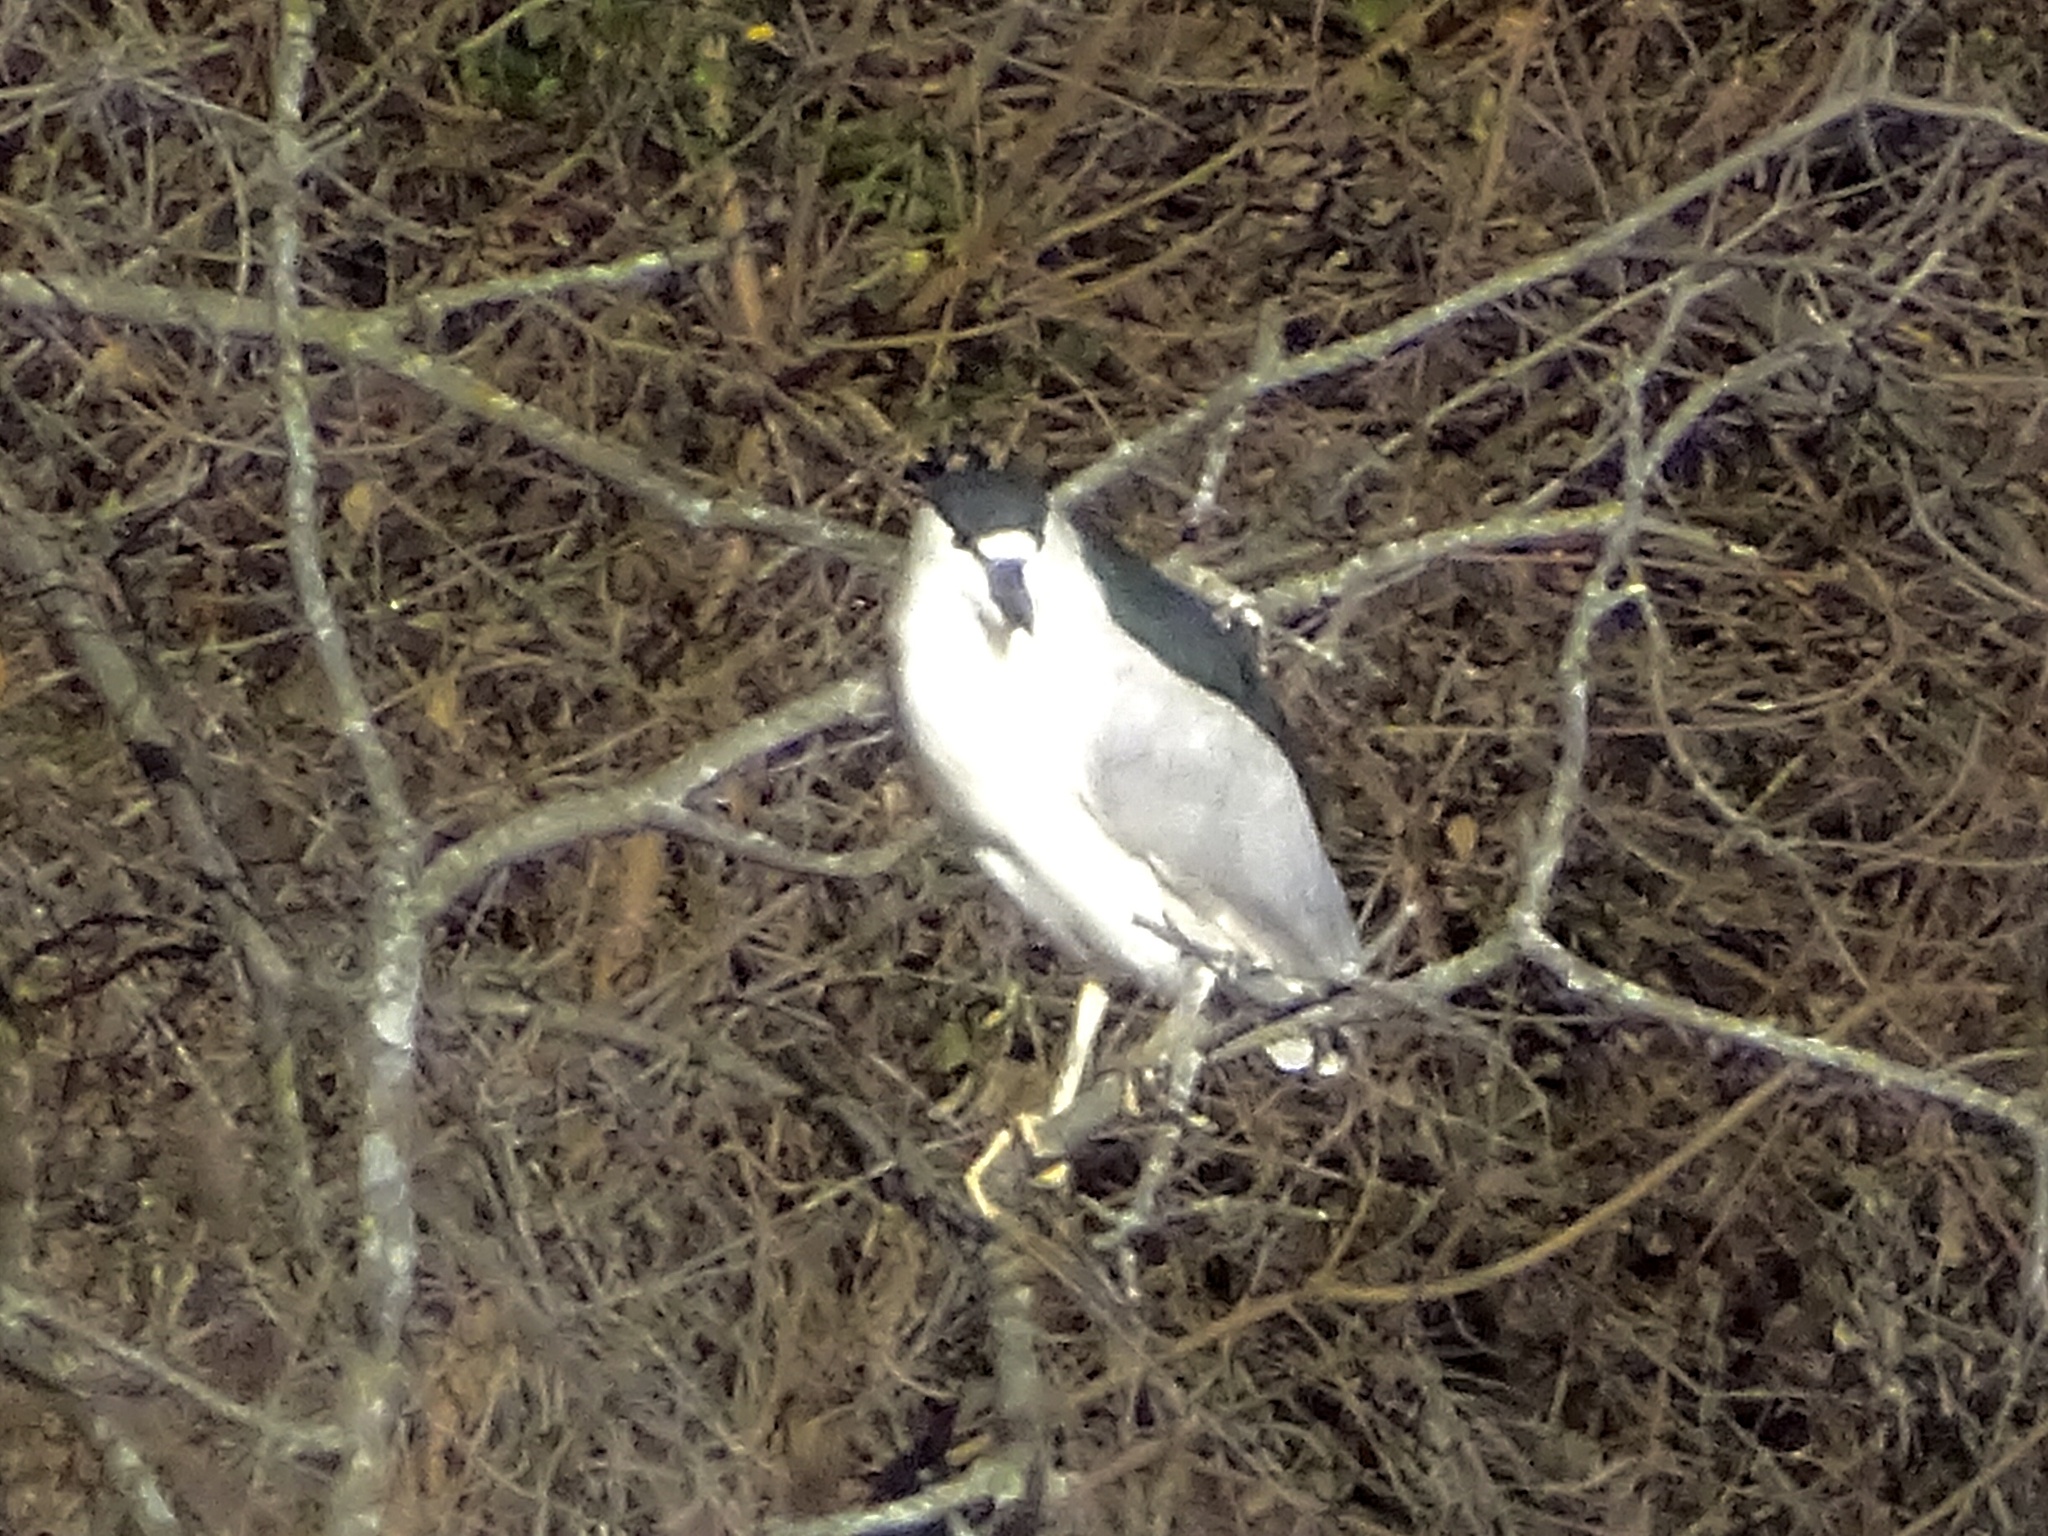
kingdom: Animalia
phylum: Chordata
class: Aves
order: Pelecaniformes
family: Ardeidae
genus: Nycticorax
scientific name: Nycticorax nycticorax
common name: Black-crowned night heron
